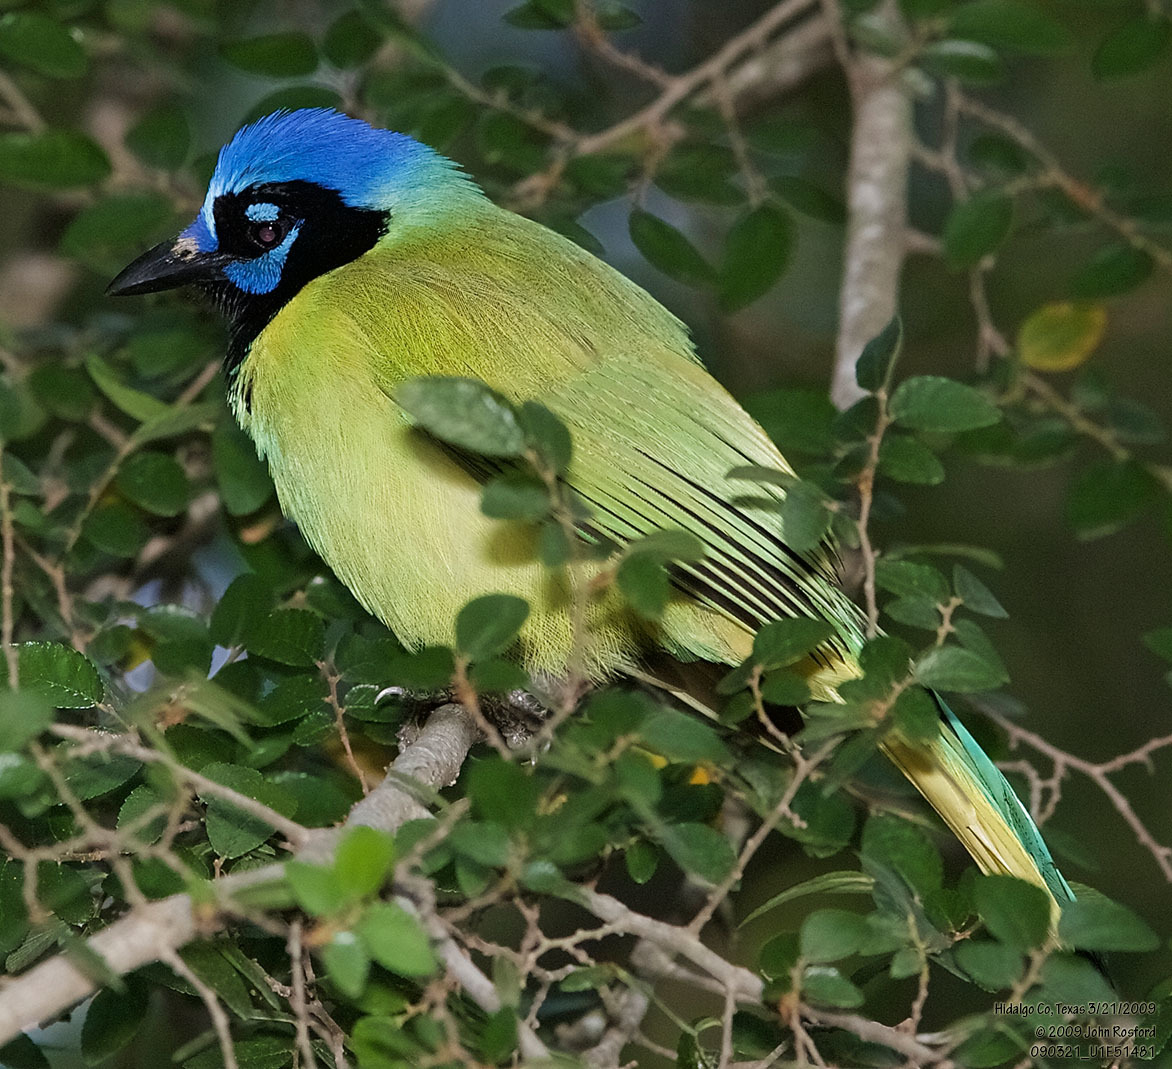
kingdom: Animalia
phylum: Chordata
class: Aves
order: Passeriformes
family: Corvidae
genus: Cyanocorax
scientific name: Cyanocorax yncas
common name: Green jay
